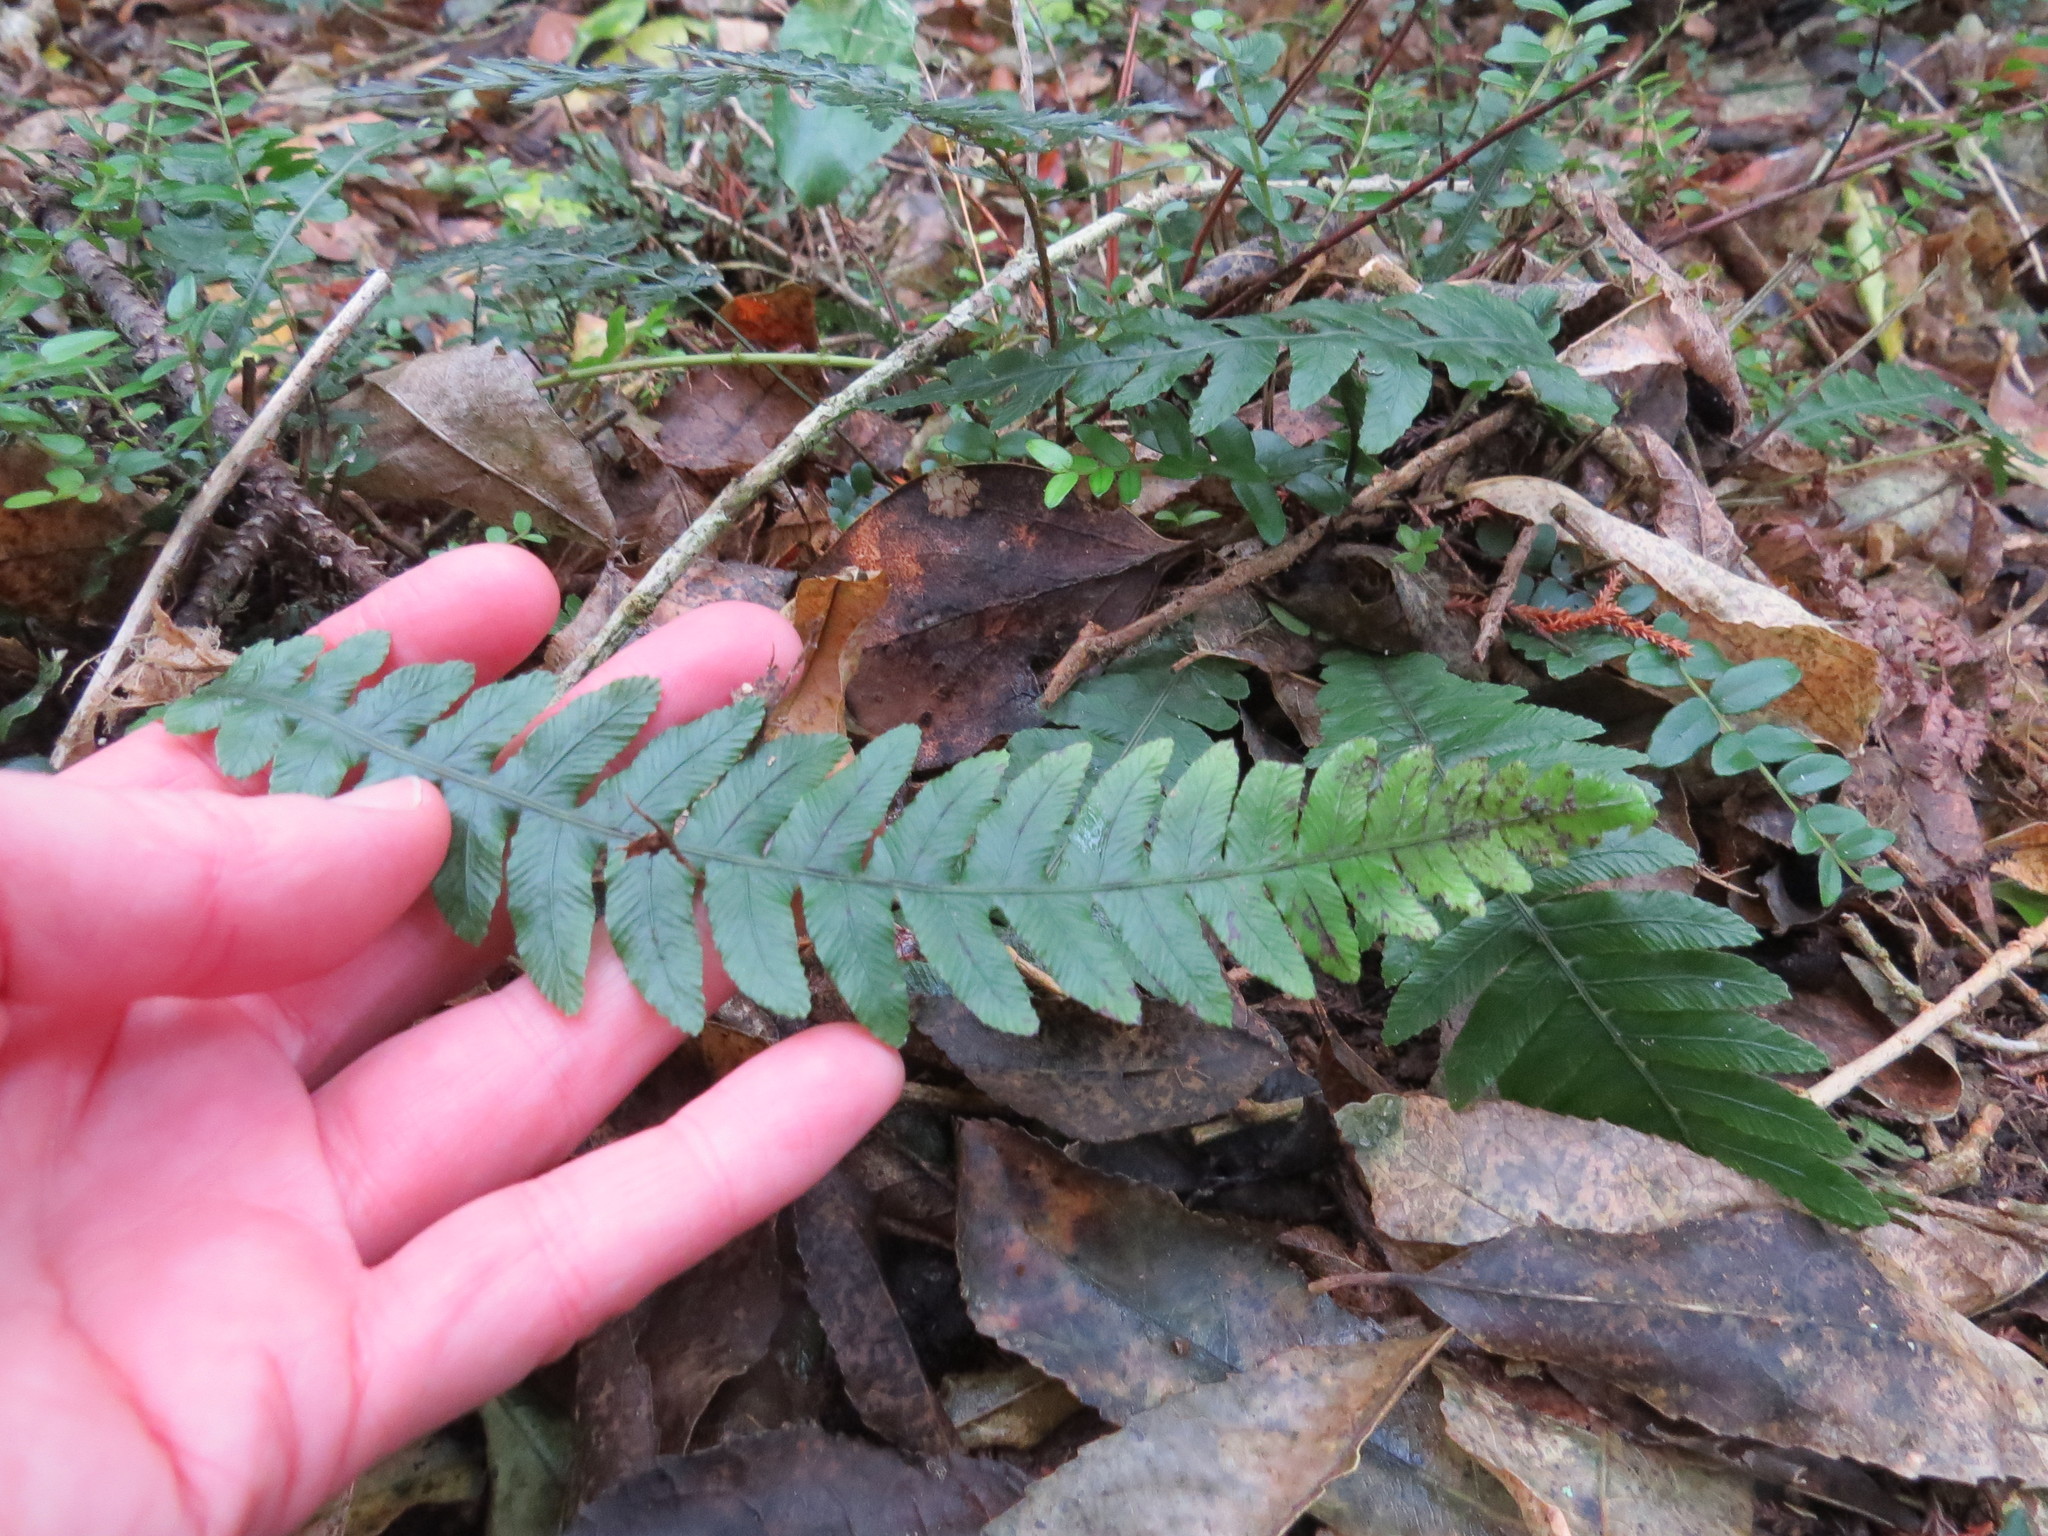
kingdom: Plantae
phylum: Tracheophyta
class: Polypodiopsida
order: Polypodiales
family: Blechnaceae
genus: Austroblechnum
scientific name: Austroblechnum lanceolatum
